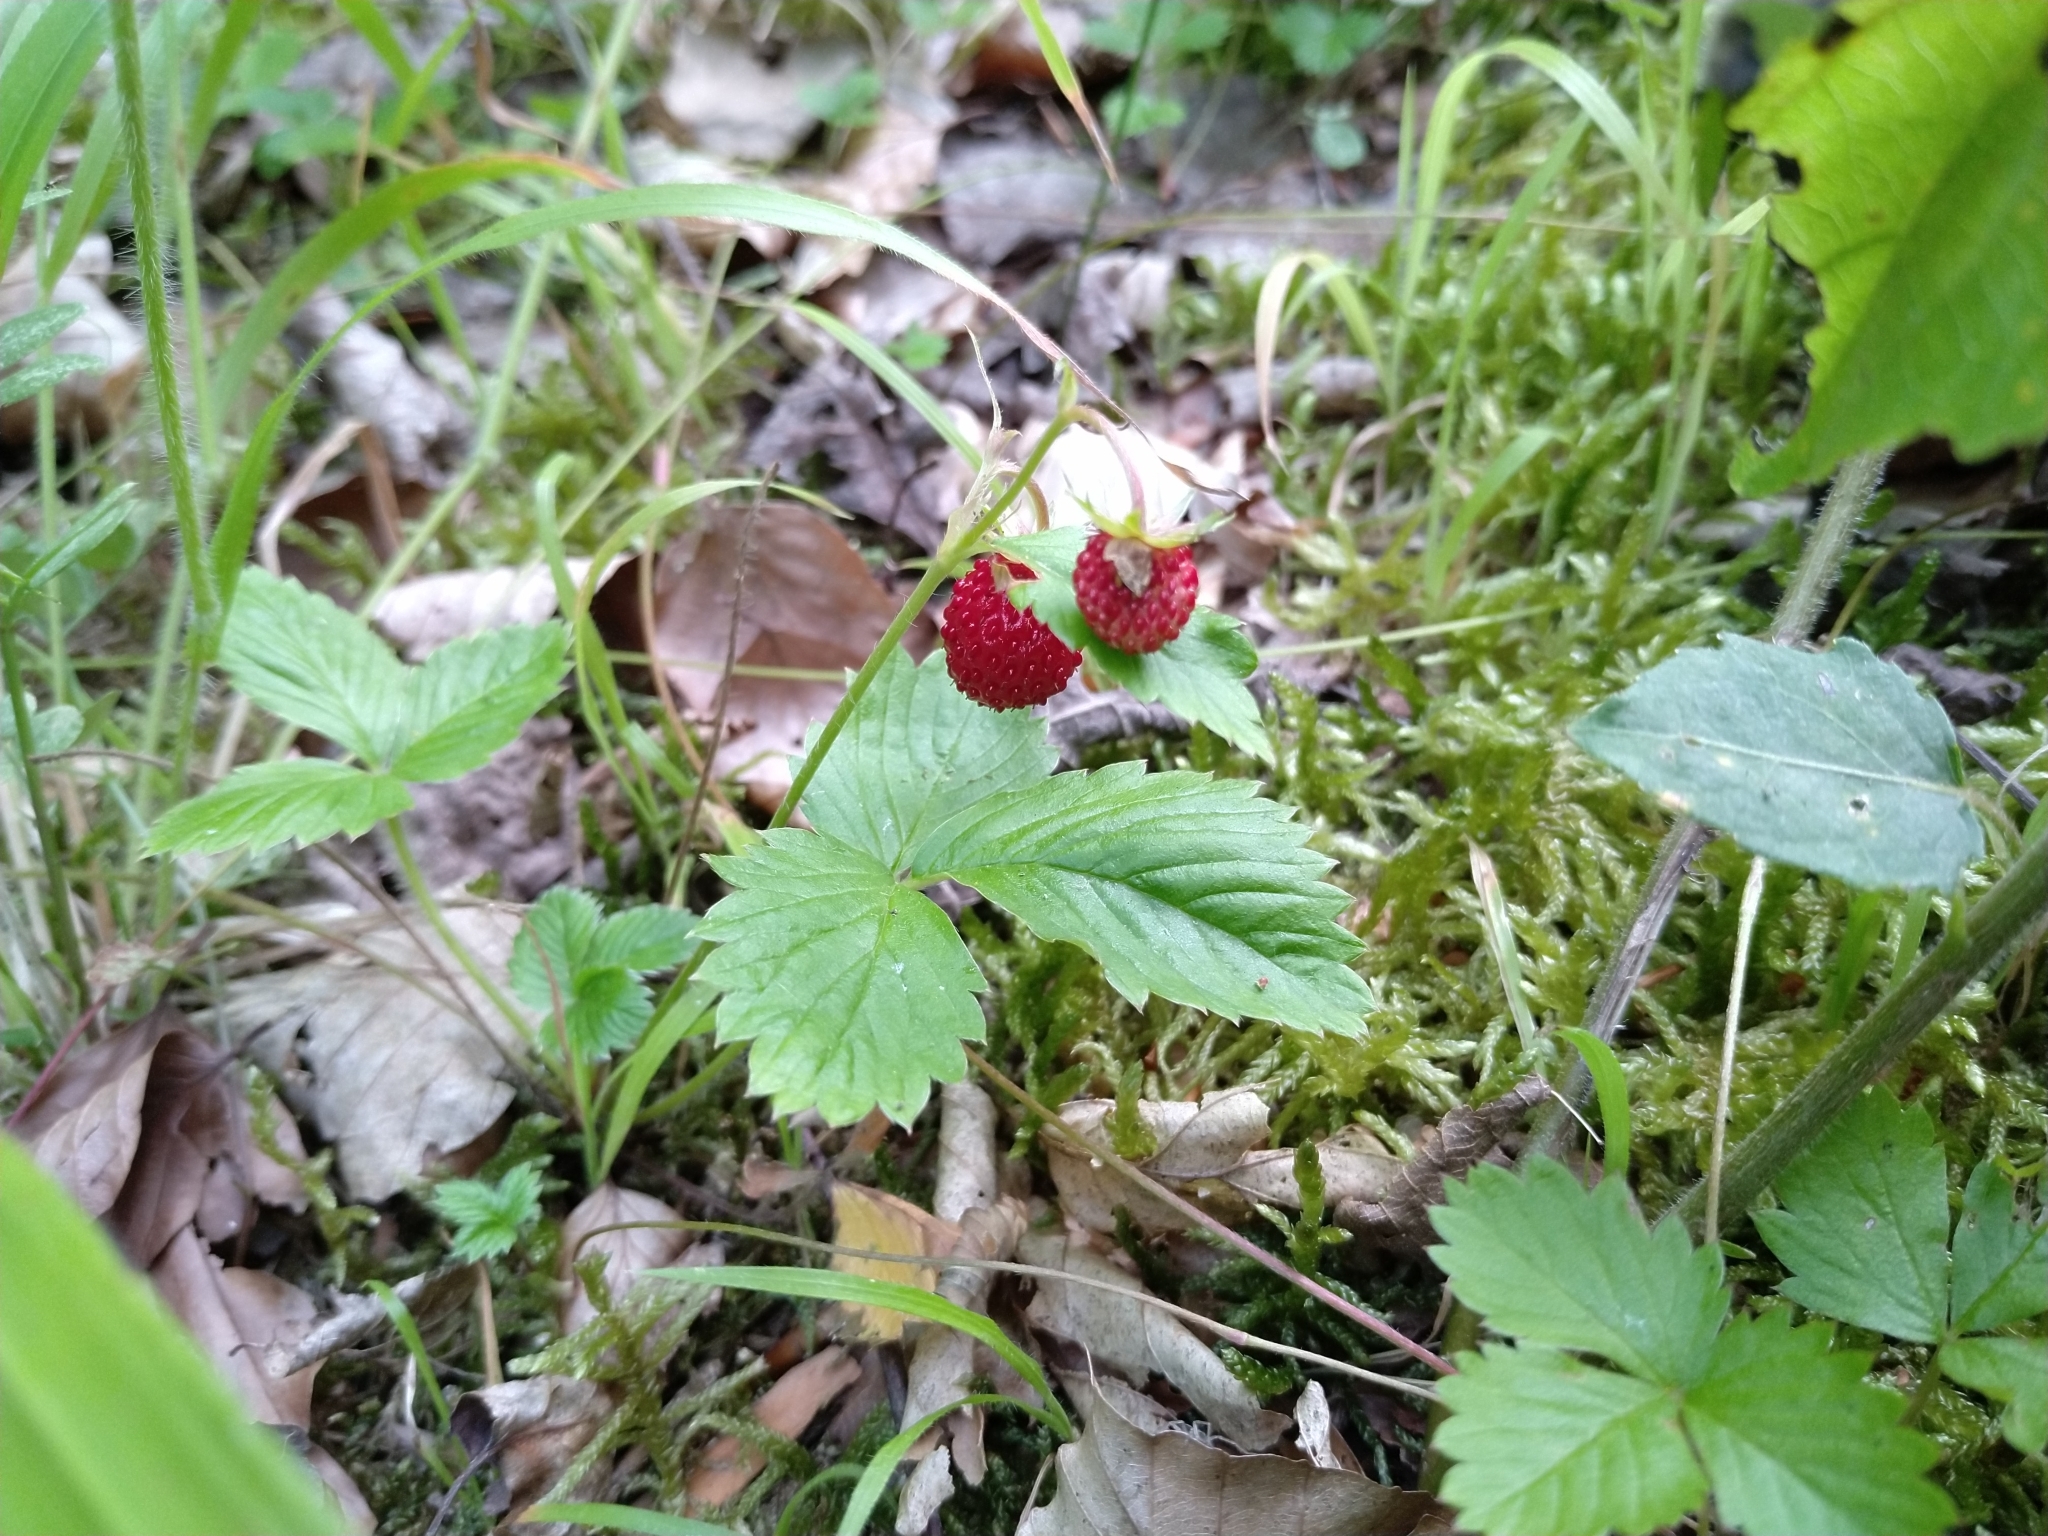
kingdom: Plantae
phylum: Tracheophyta
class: Magnoliopsida
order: Rosales
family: Rosaceae
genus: Fragaria
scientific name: Fragaria vesca
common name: Wild strawberry
